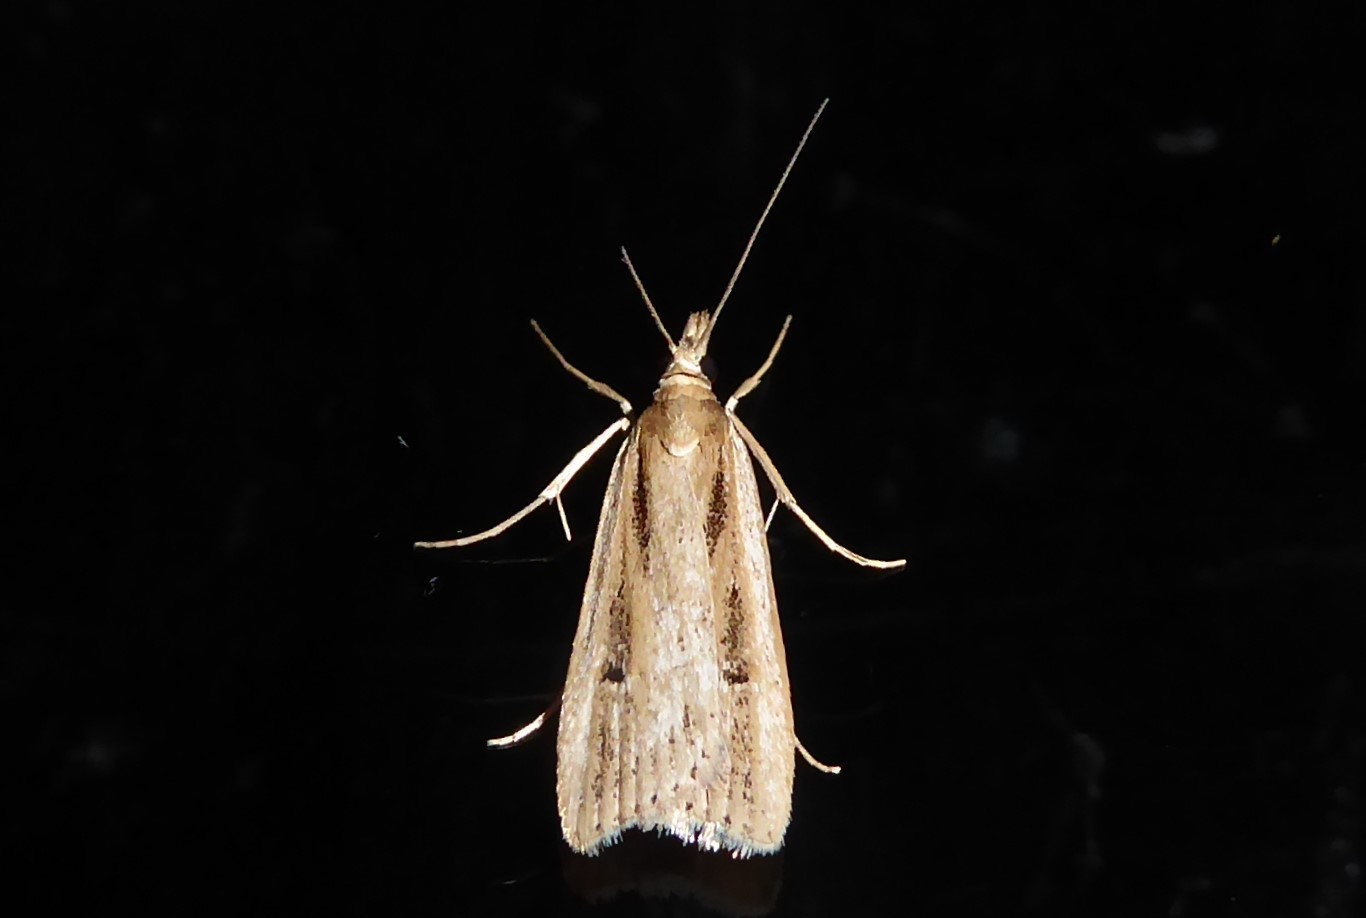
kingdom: Animalia
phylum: Arthropoda
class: Insecta
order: Lepidoptera
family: Crambidae
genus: Eudonia
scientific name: Eudonia sabulosella
